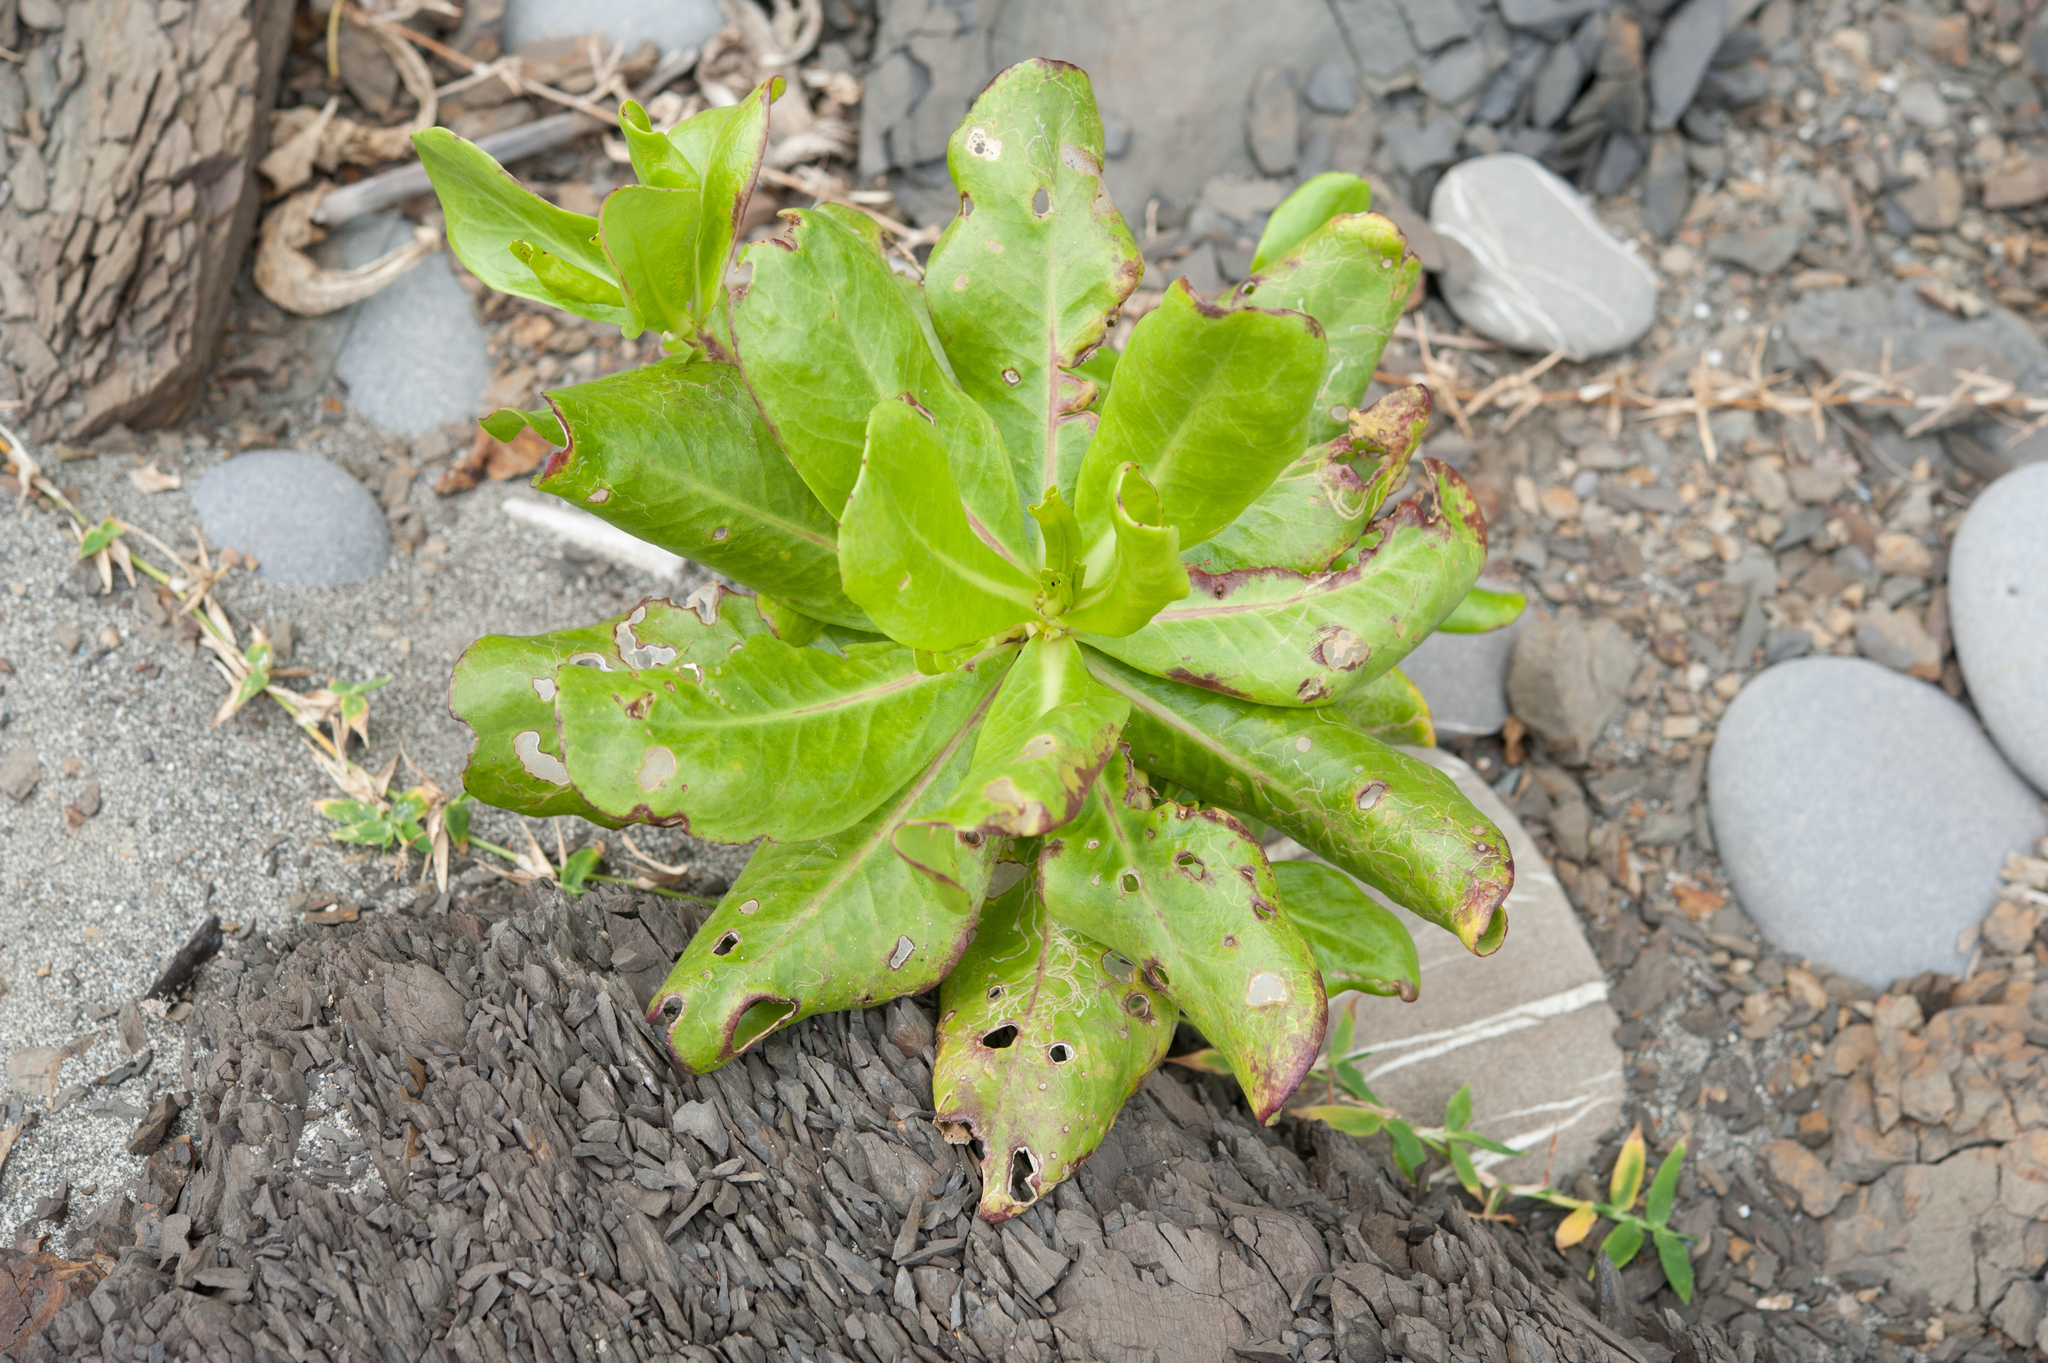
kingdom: Plantae
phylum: Tracheophyta
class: Magnoliopsida
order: Asterales
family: Goodeniaceae
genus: Scaevola
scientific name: Scaevola taccada
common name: Sea lettucetree
